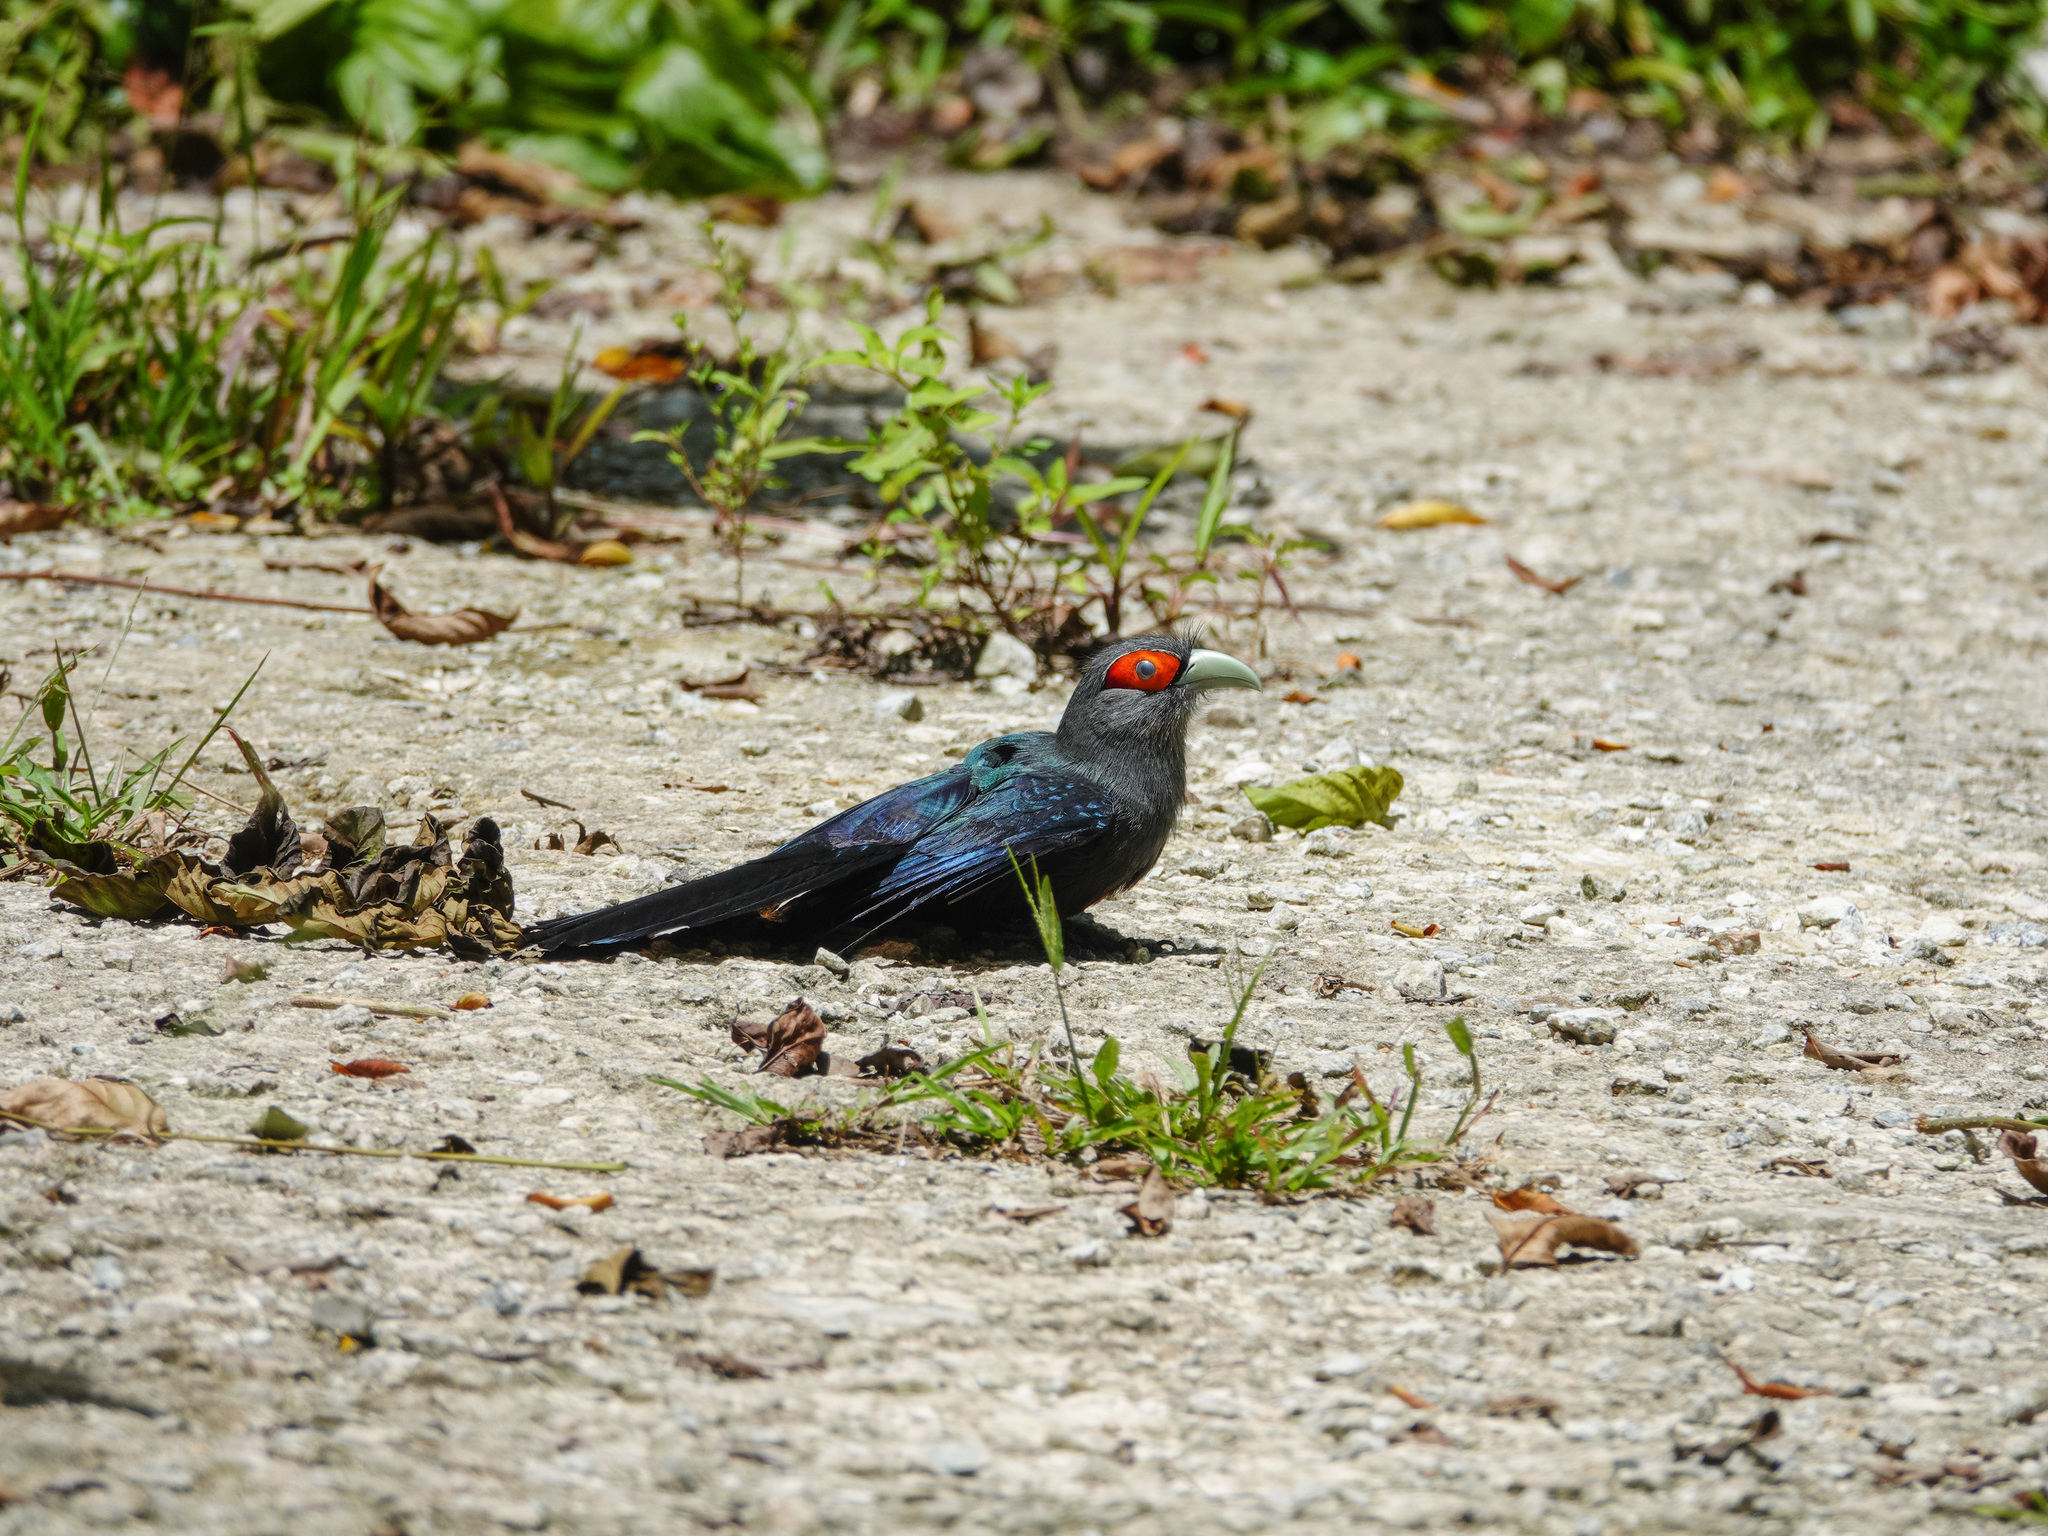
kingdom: Animalia
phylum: Chordata
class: Aves
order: Cuculiformes
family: Cuculidae
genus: Rhopodytes
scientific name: Rhopodytes sumatranus
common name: Rufous-bellied malcoha
